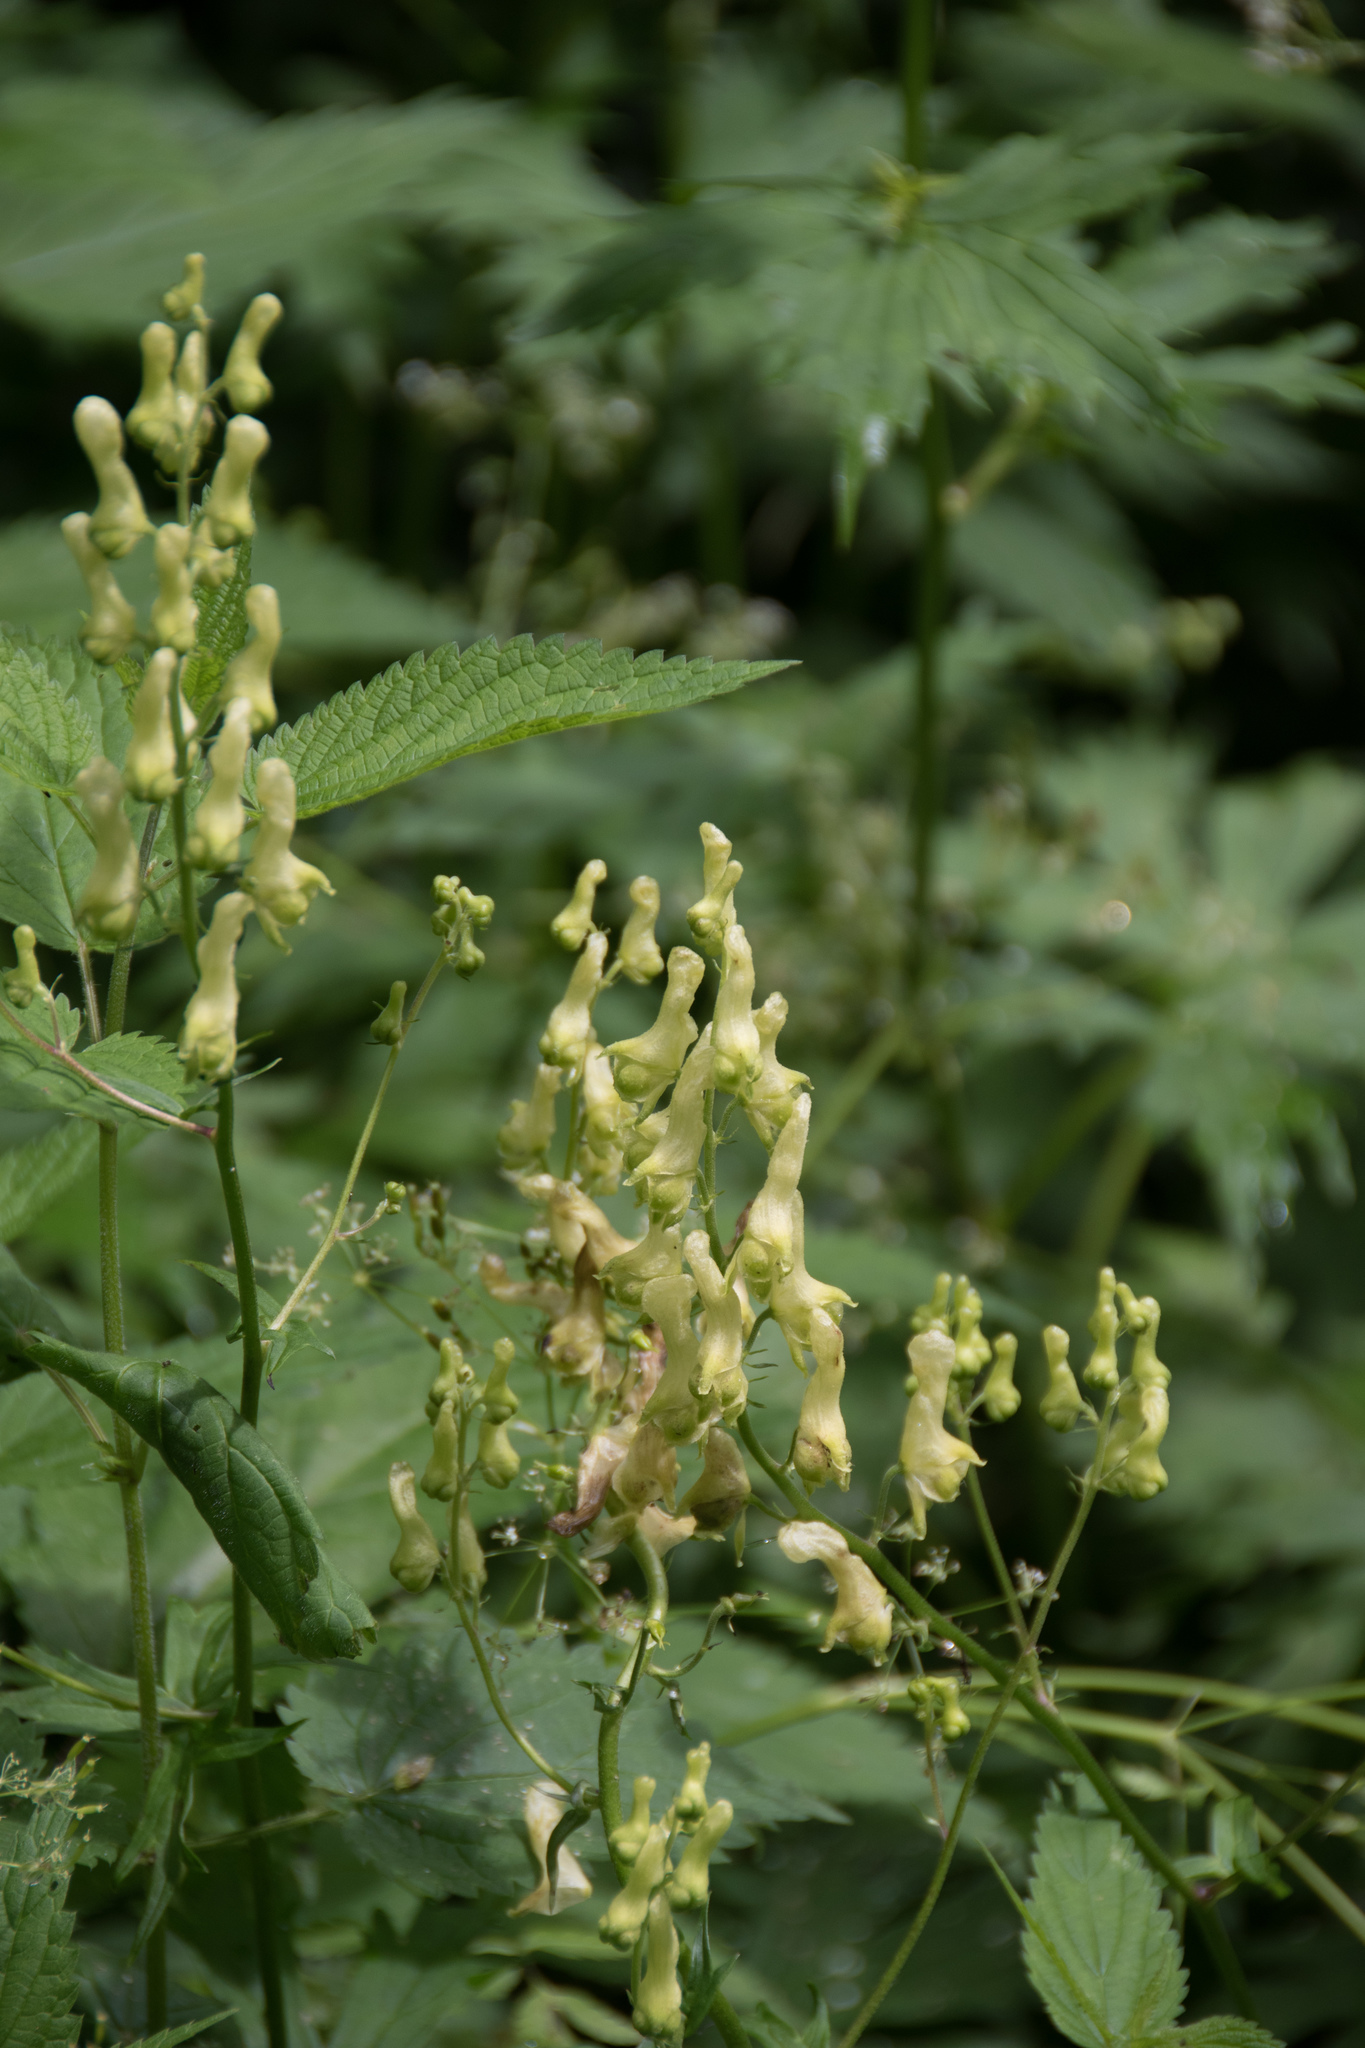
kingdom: Plantae
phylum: Tracheophyta
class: Magnoliopsida
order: Ranunculales
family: Ranunculaceae
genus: Aconitum
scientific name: Aconitum lycoctonum
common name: Wolf's-bane
